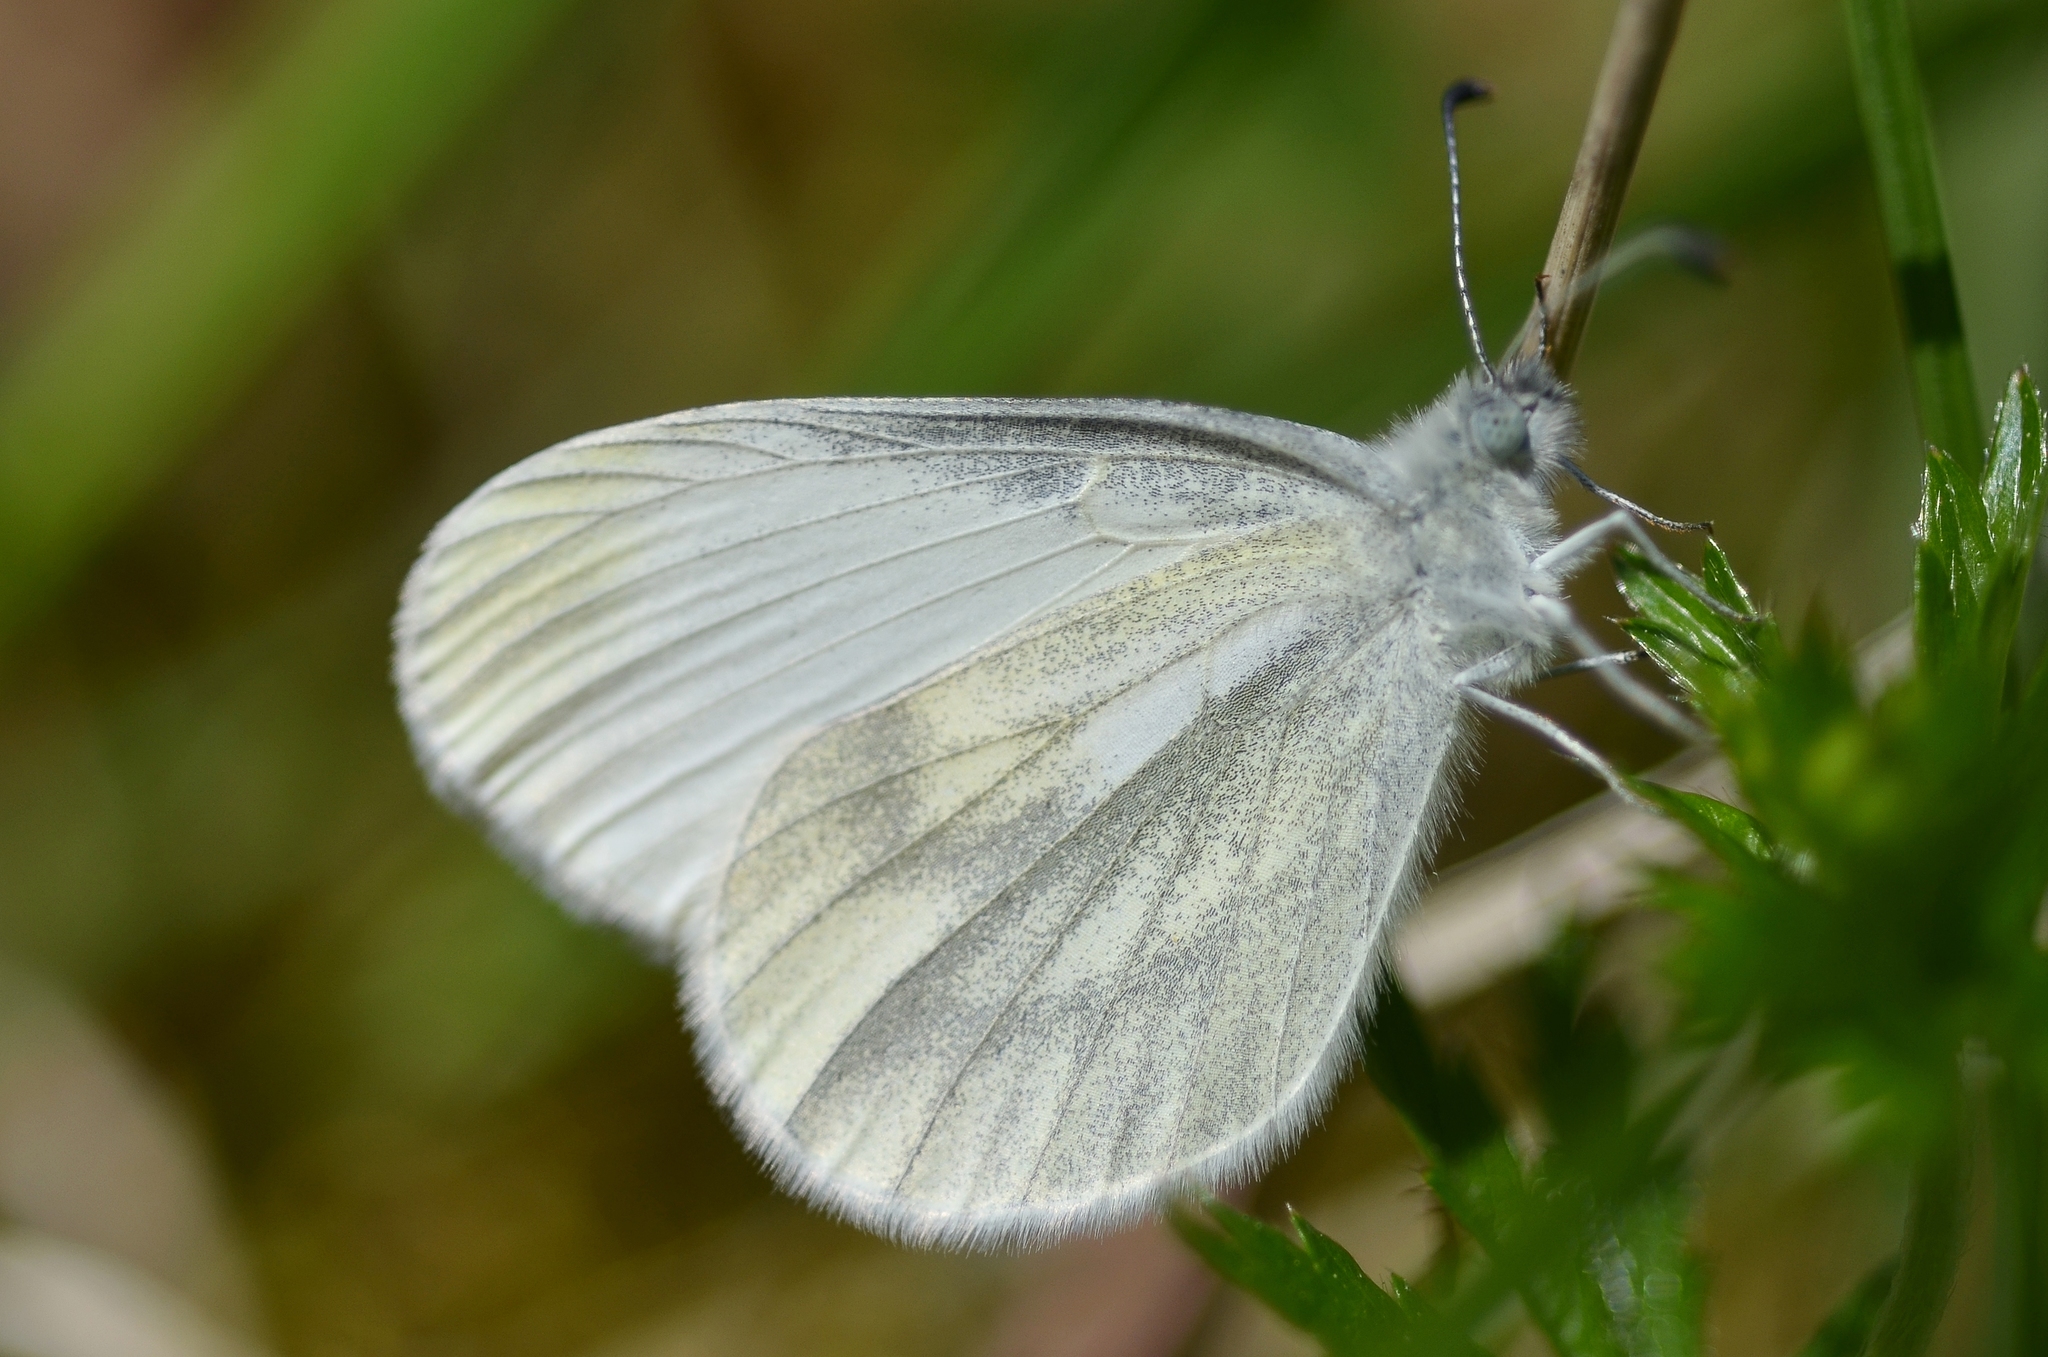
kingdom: Animalia
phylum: Arthropoda
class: Insecta
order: Lepidoptera
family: Pieridae
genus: Leptidea
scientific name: Leptidea
